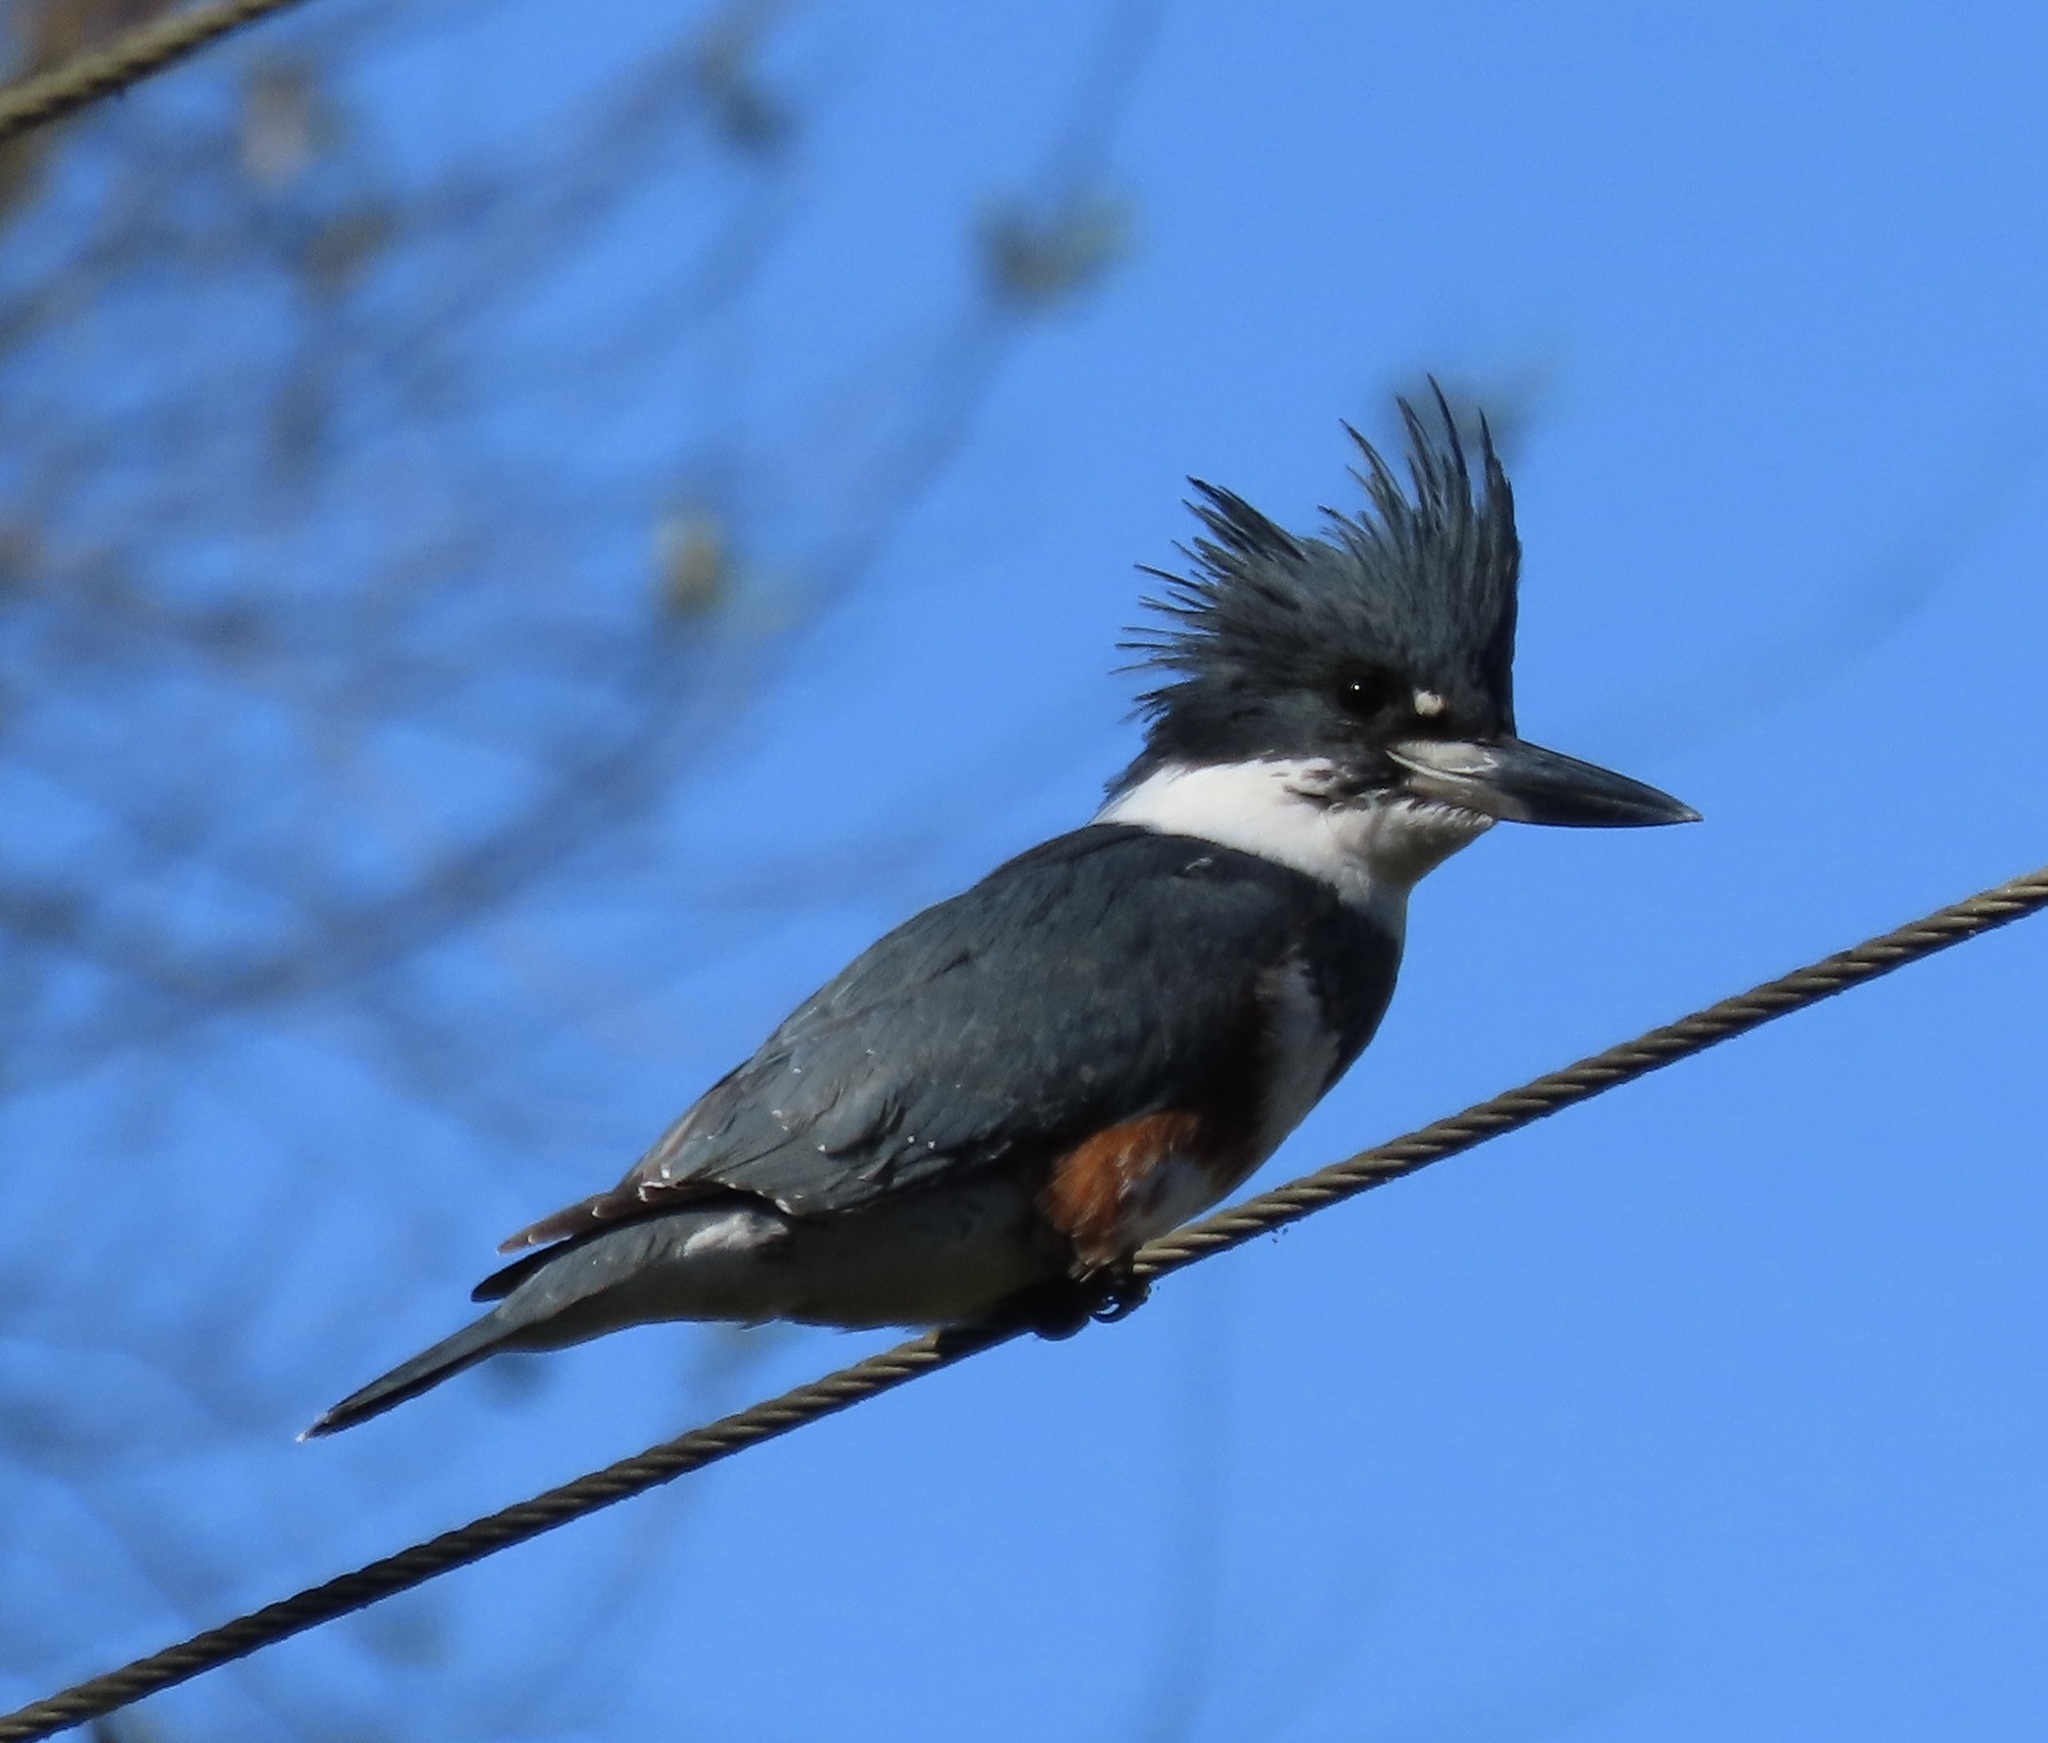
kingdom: Animalia
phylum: Chordata
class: Aves
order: Coraciiformes
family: Alcedinidae
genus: Megaceryle
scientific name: Megaceryle alcyon
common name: Belted kingfisher
